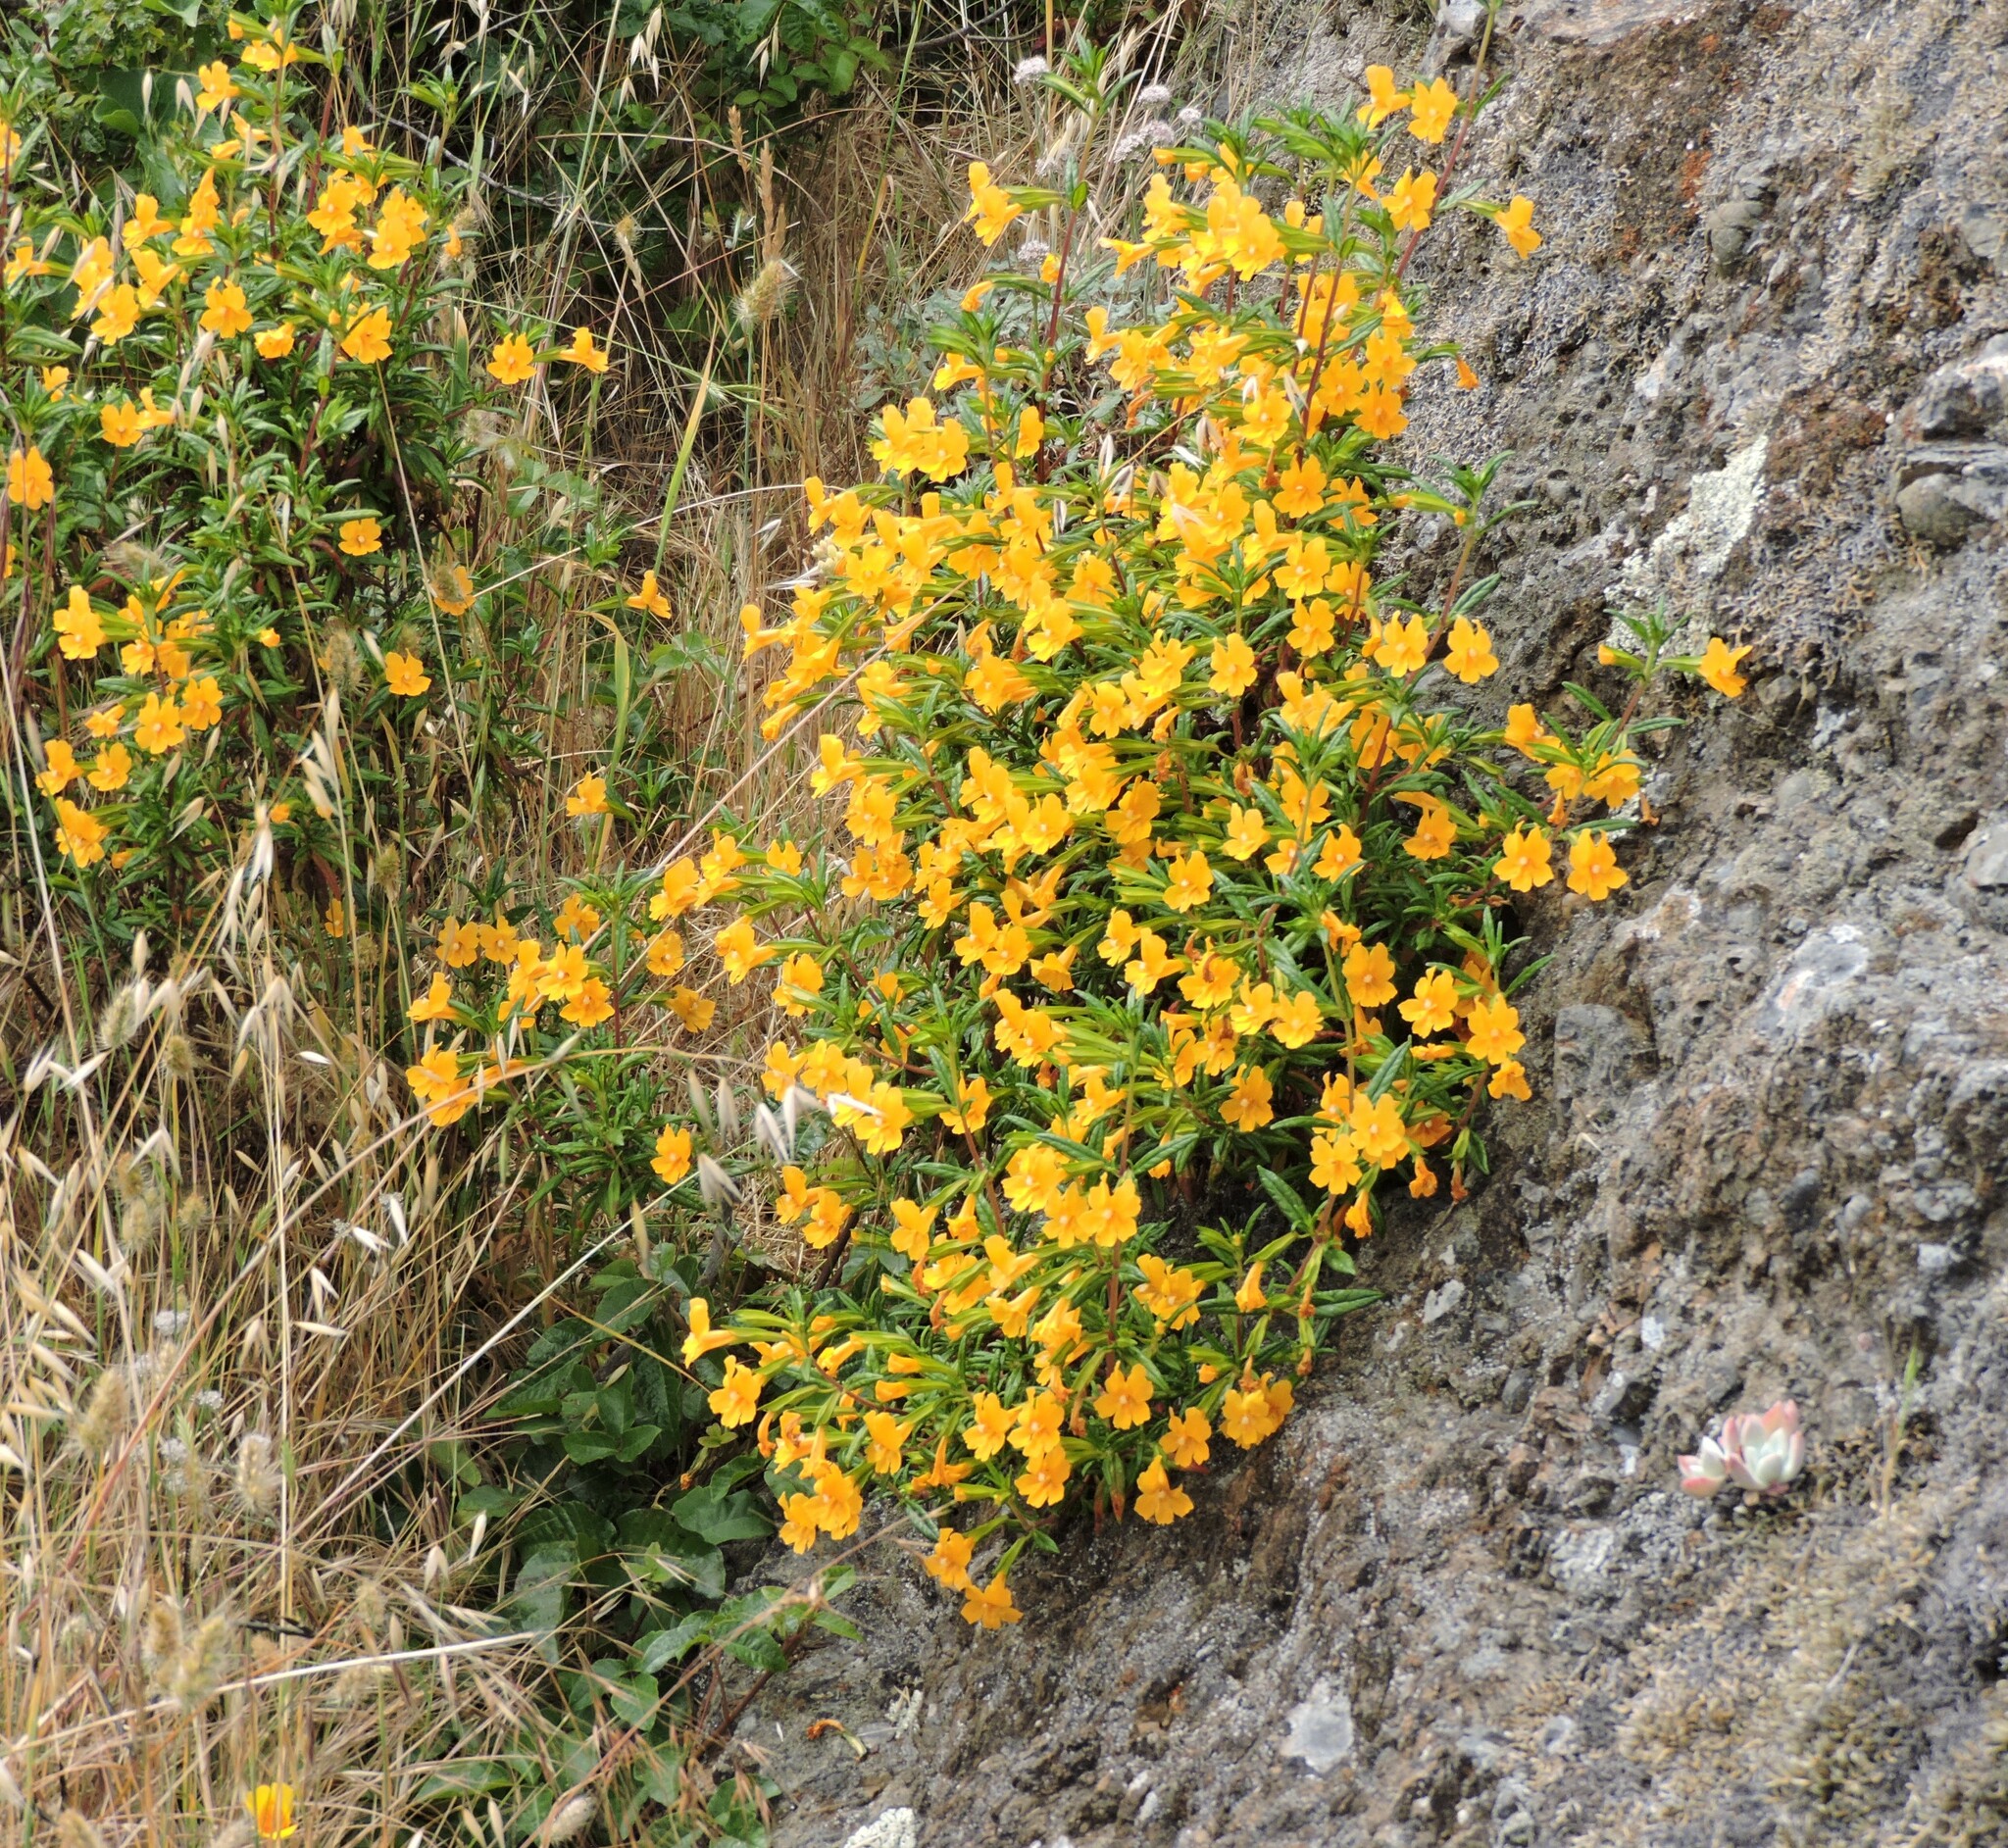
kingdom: Plantae
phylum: Tracheophyta
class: Magnoliopsida
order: Lamiales
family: Phrymaceae
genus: Diplacus
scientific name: Diplacus aurantiacus
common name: Bush monkey-flower
